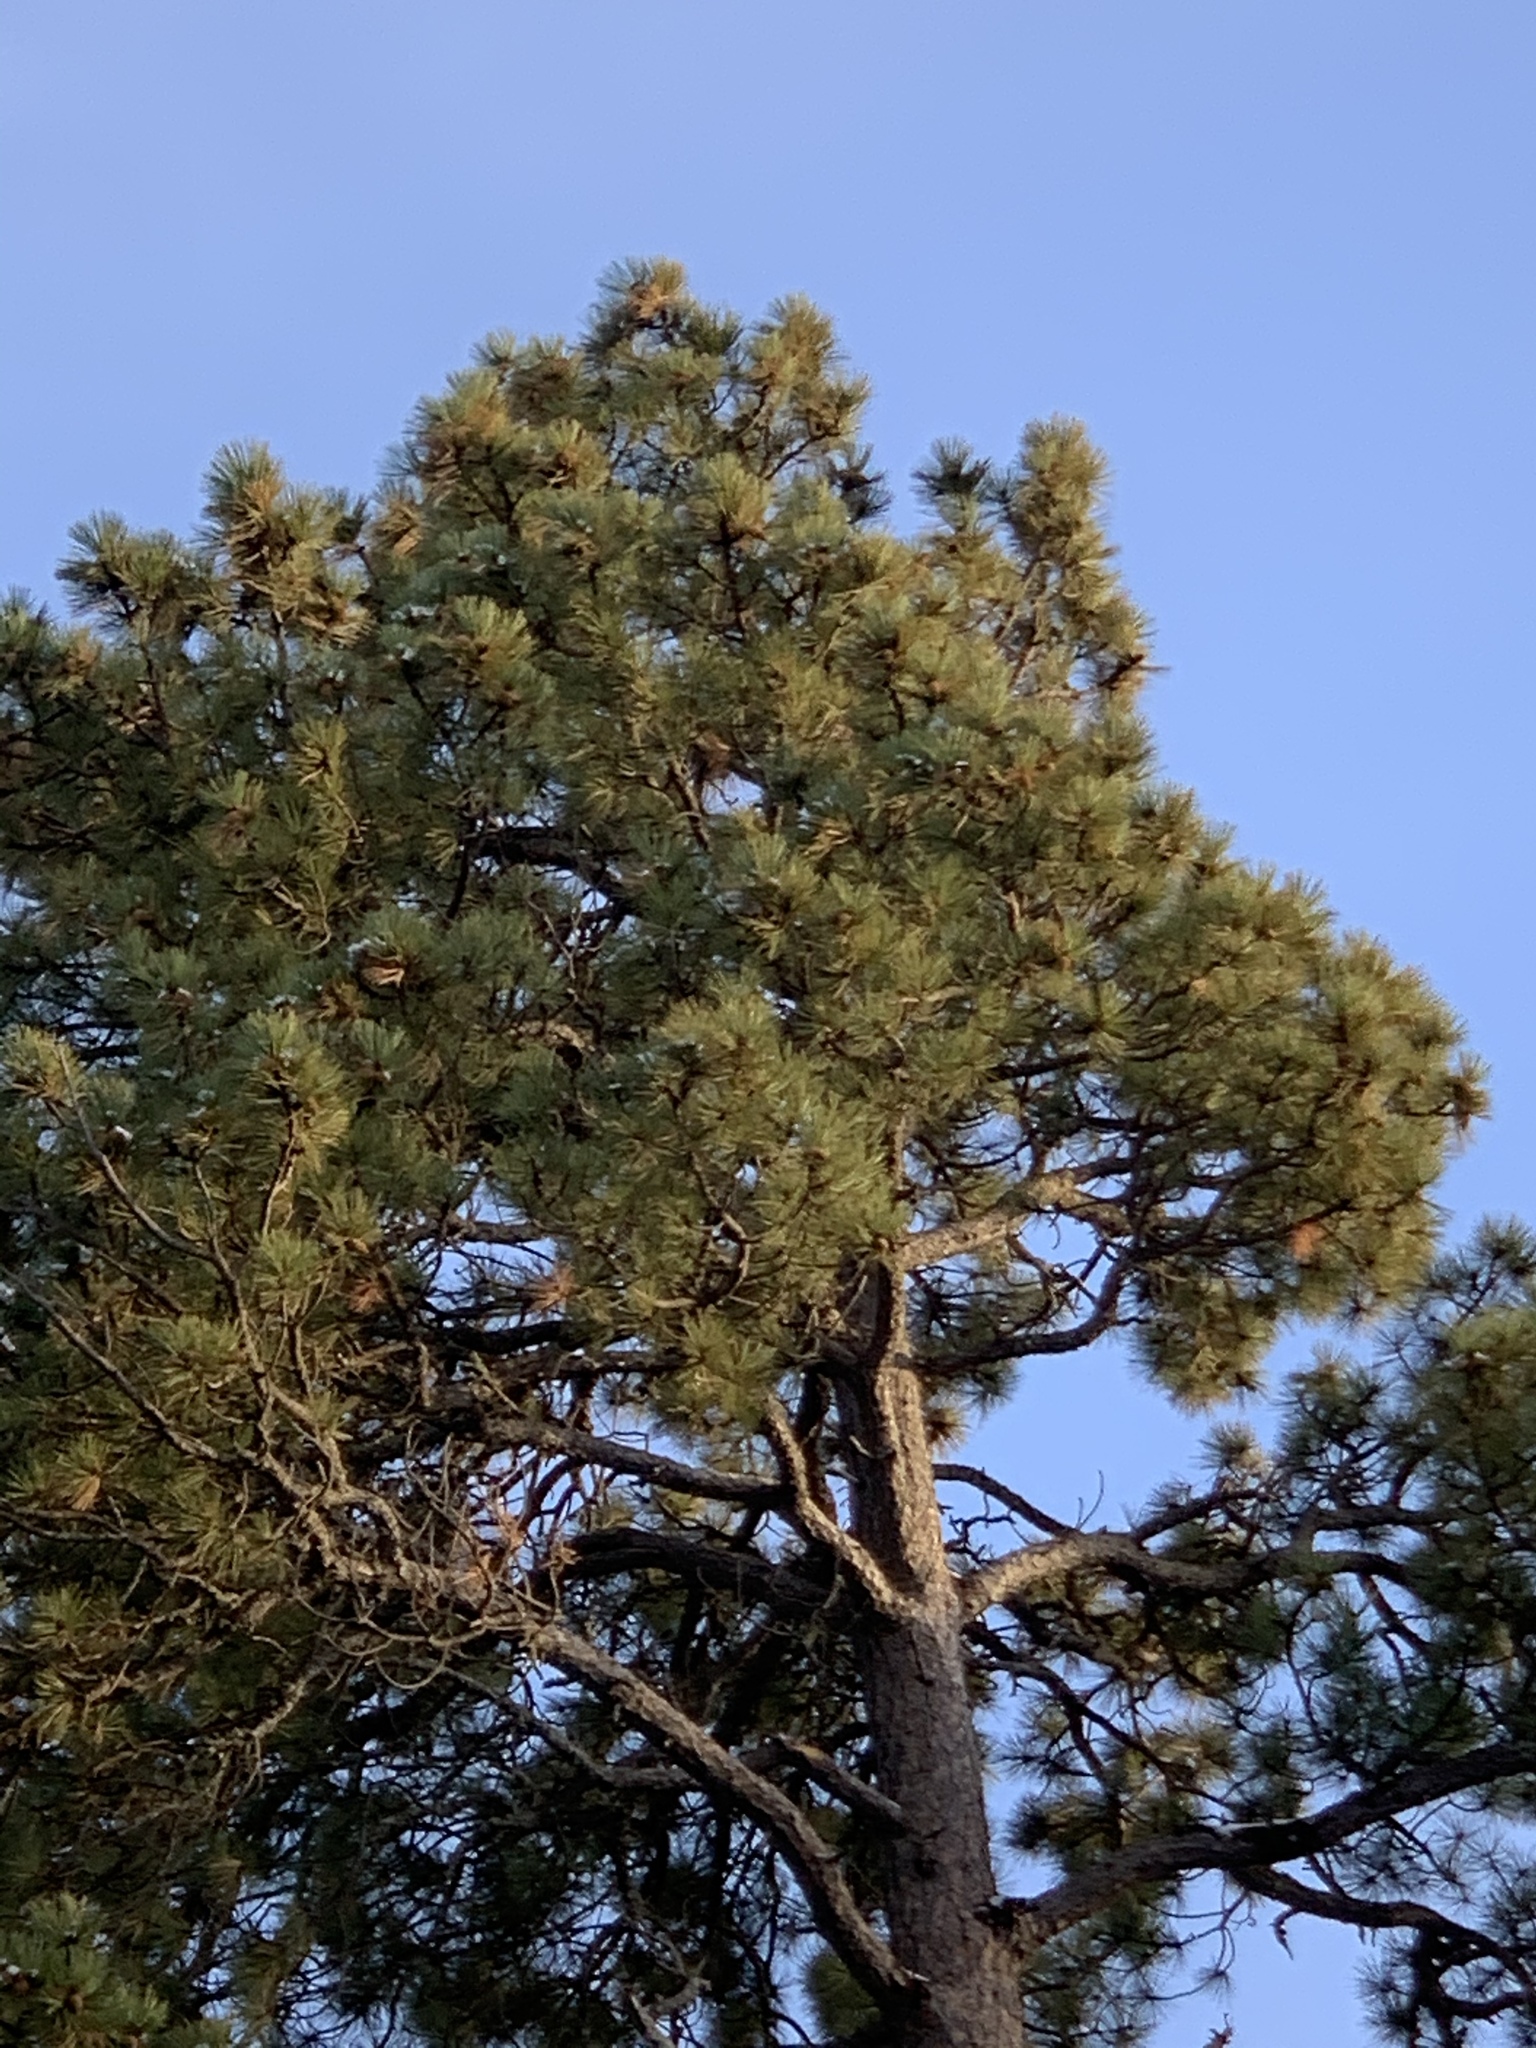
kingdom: Plantae
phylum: Tracheophyta
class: Pinopsida
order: Pinales
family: Pinaceae
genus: Pinus
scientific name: Pinus ponderosa
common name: Western yellow-pine
